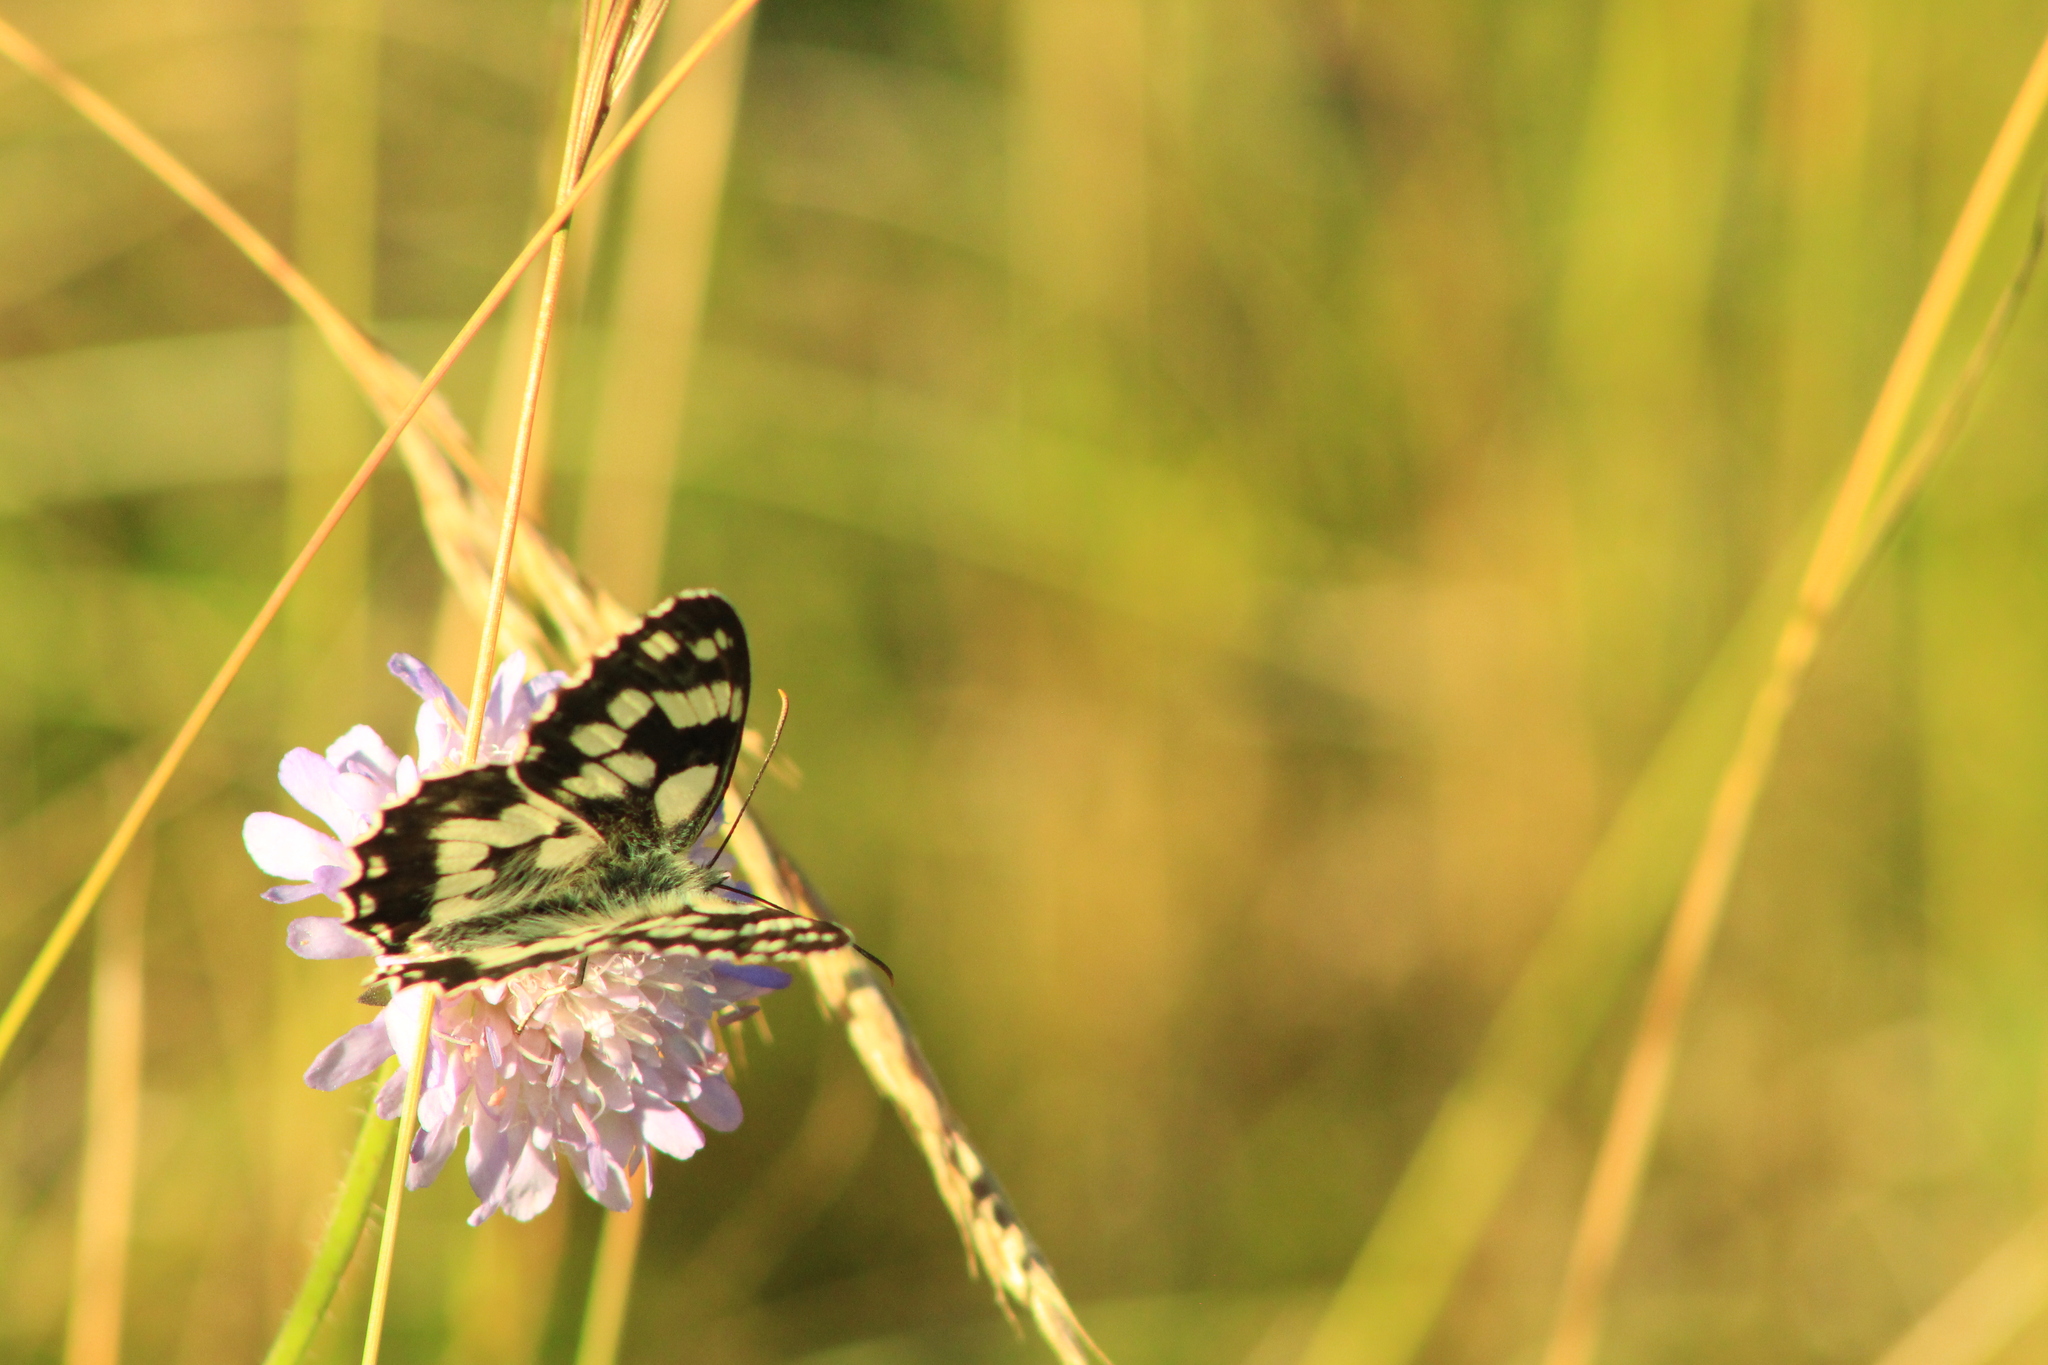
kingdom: Animalia
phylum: Arthropoda
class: Insecta
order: Lepidoptera
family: Nymphalidae
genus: Melanargia
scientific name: Melanargia galathea
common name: Marbled white
